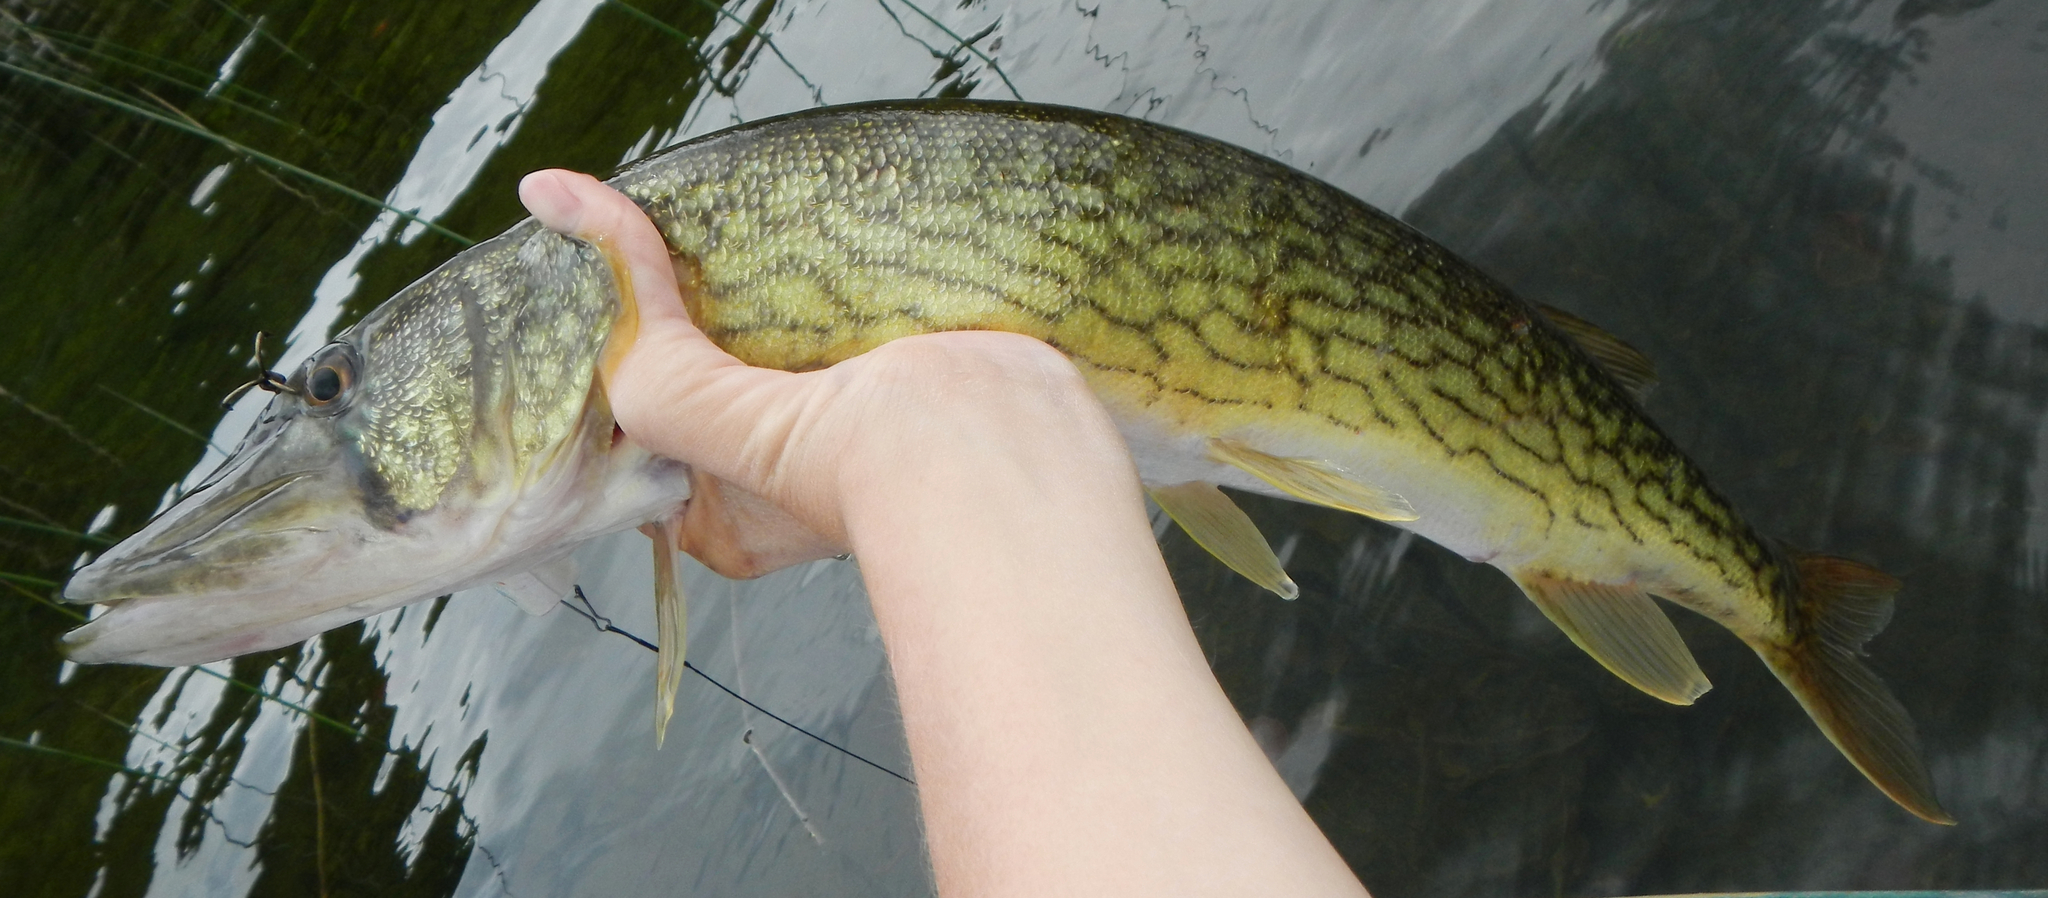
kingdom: Animalia
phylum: Chordata
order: Esociformes
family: Esocidae
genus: Esox
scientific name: Esox niger
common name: Chain pickerel
